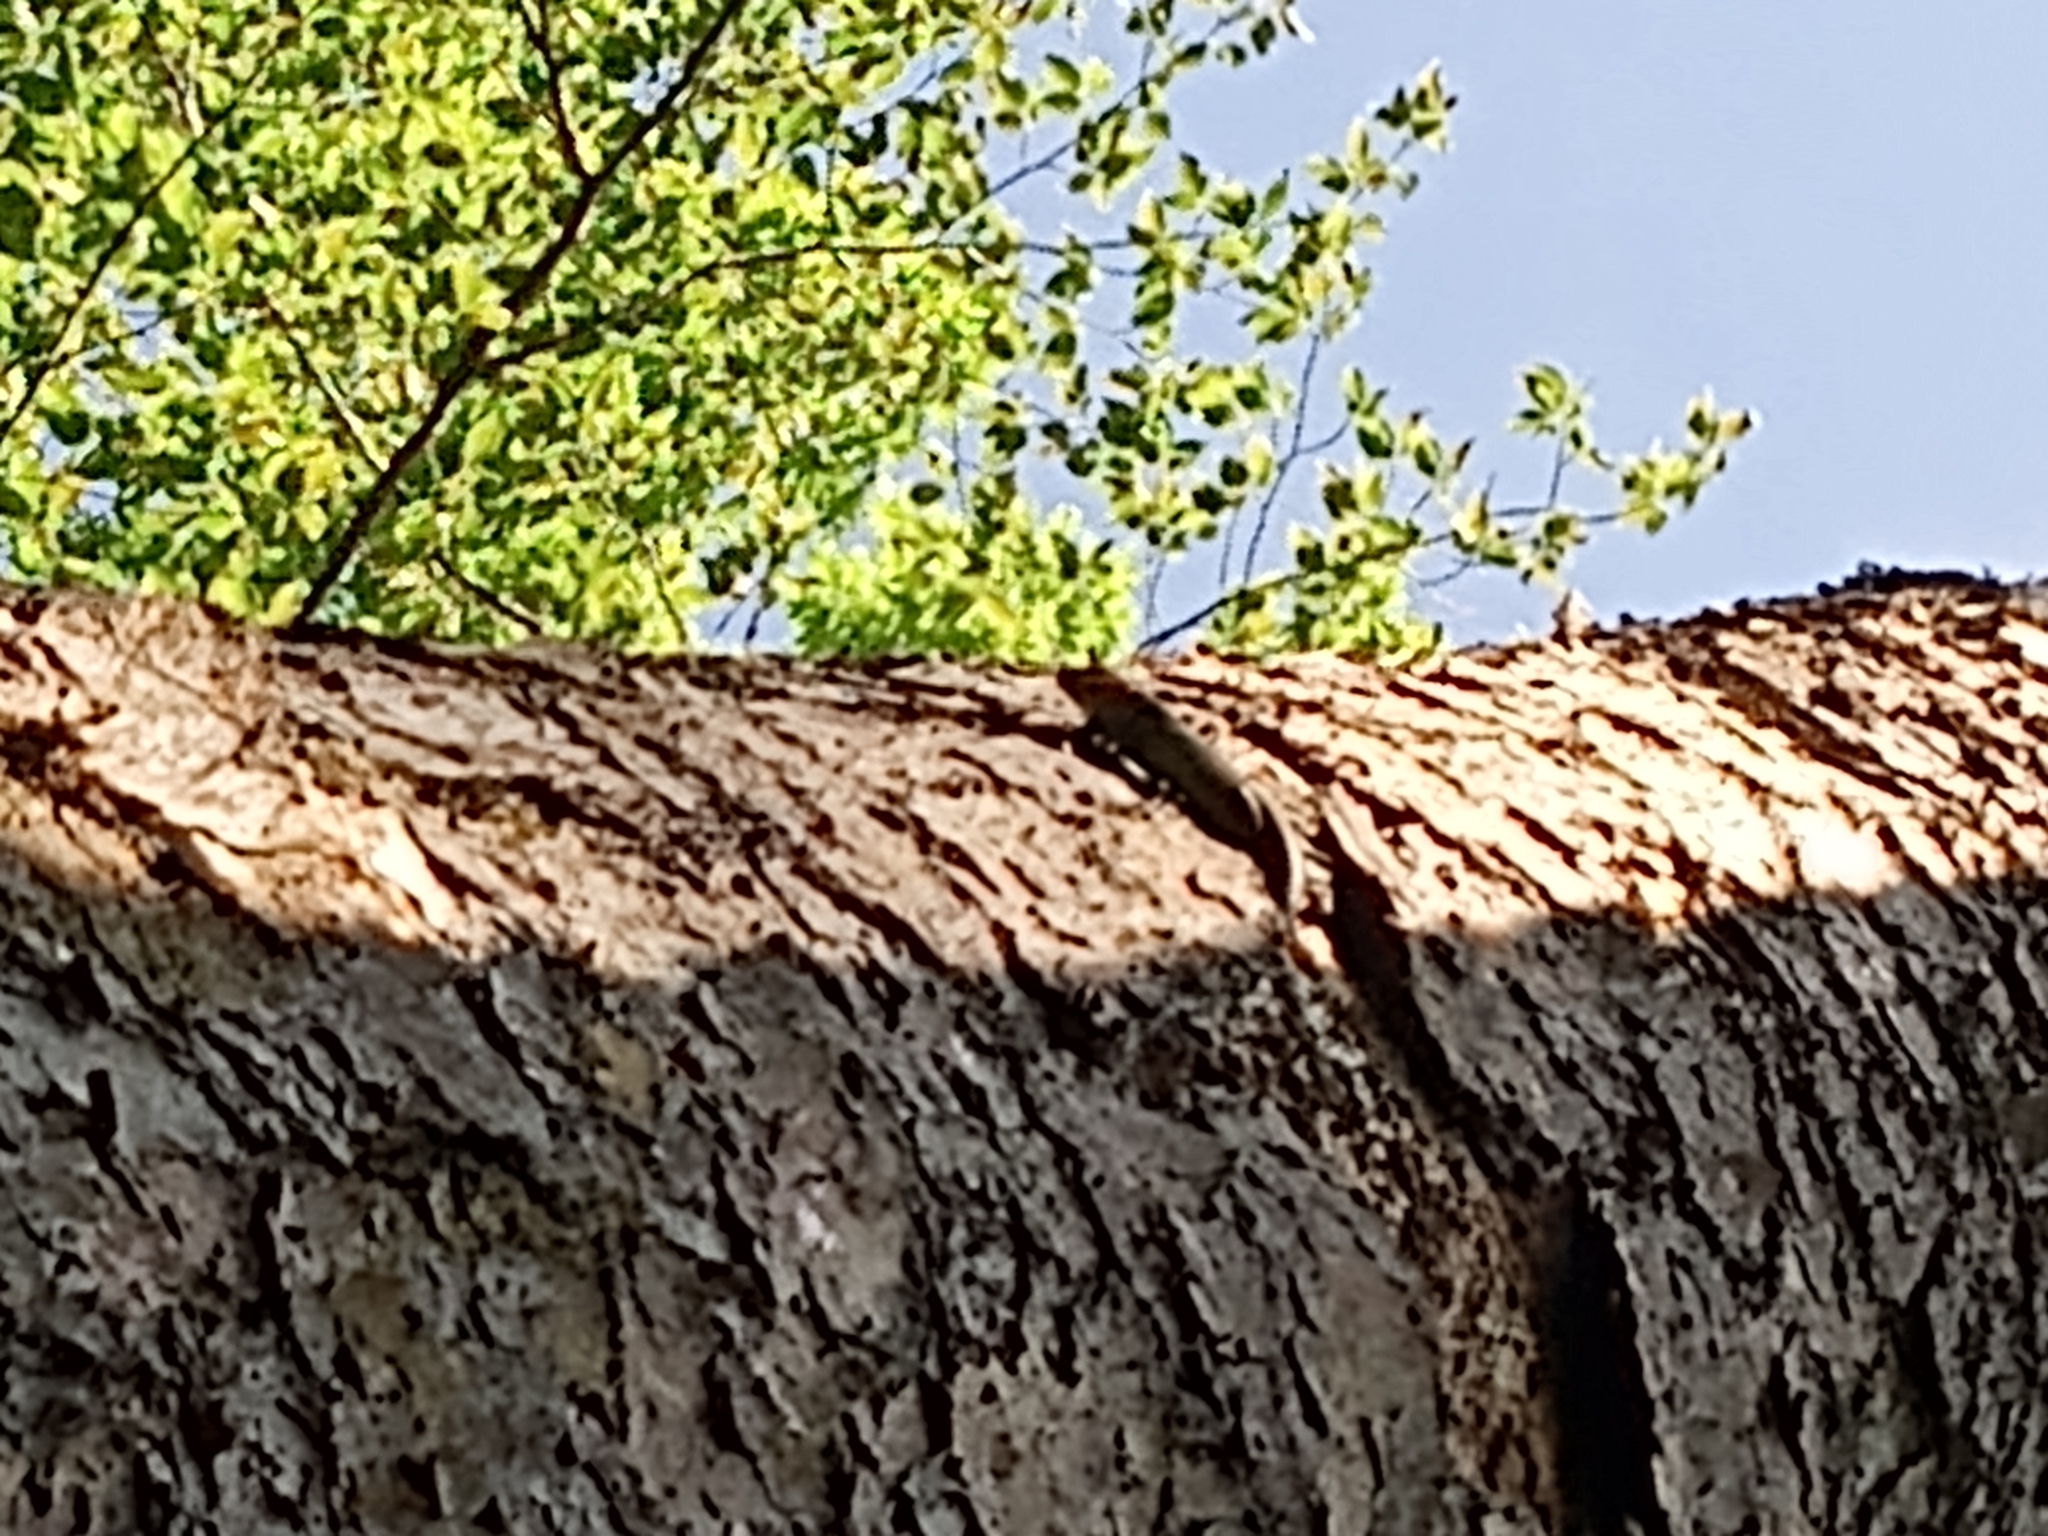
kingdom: Animalia
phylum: Chordata
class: Squamata
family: Scincidae
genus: Plestiodon
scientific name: Plestiodon laticeps
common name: Broadhead skink
